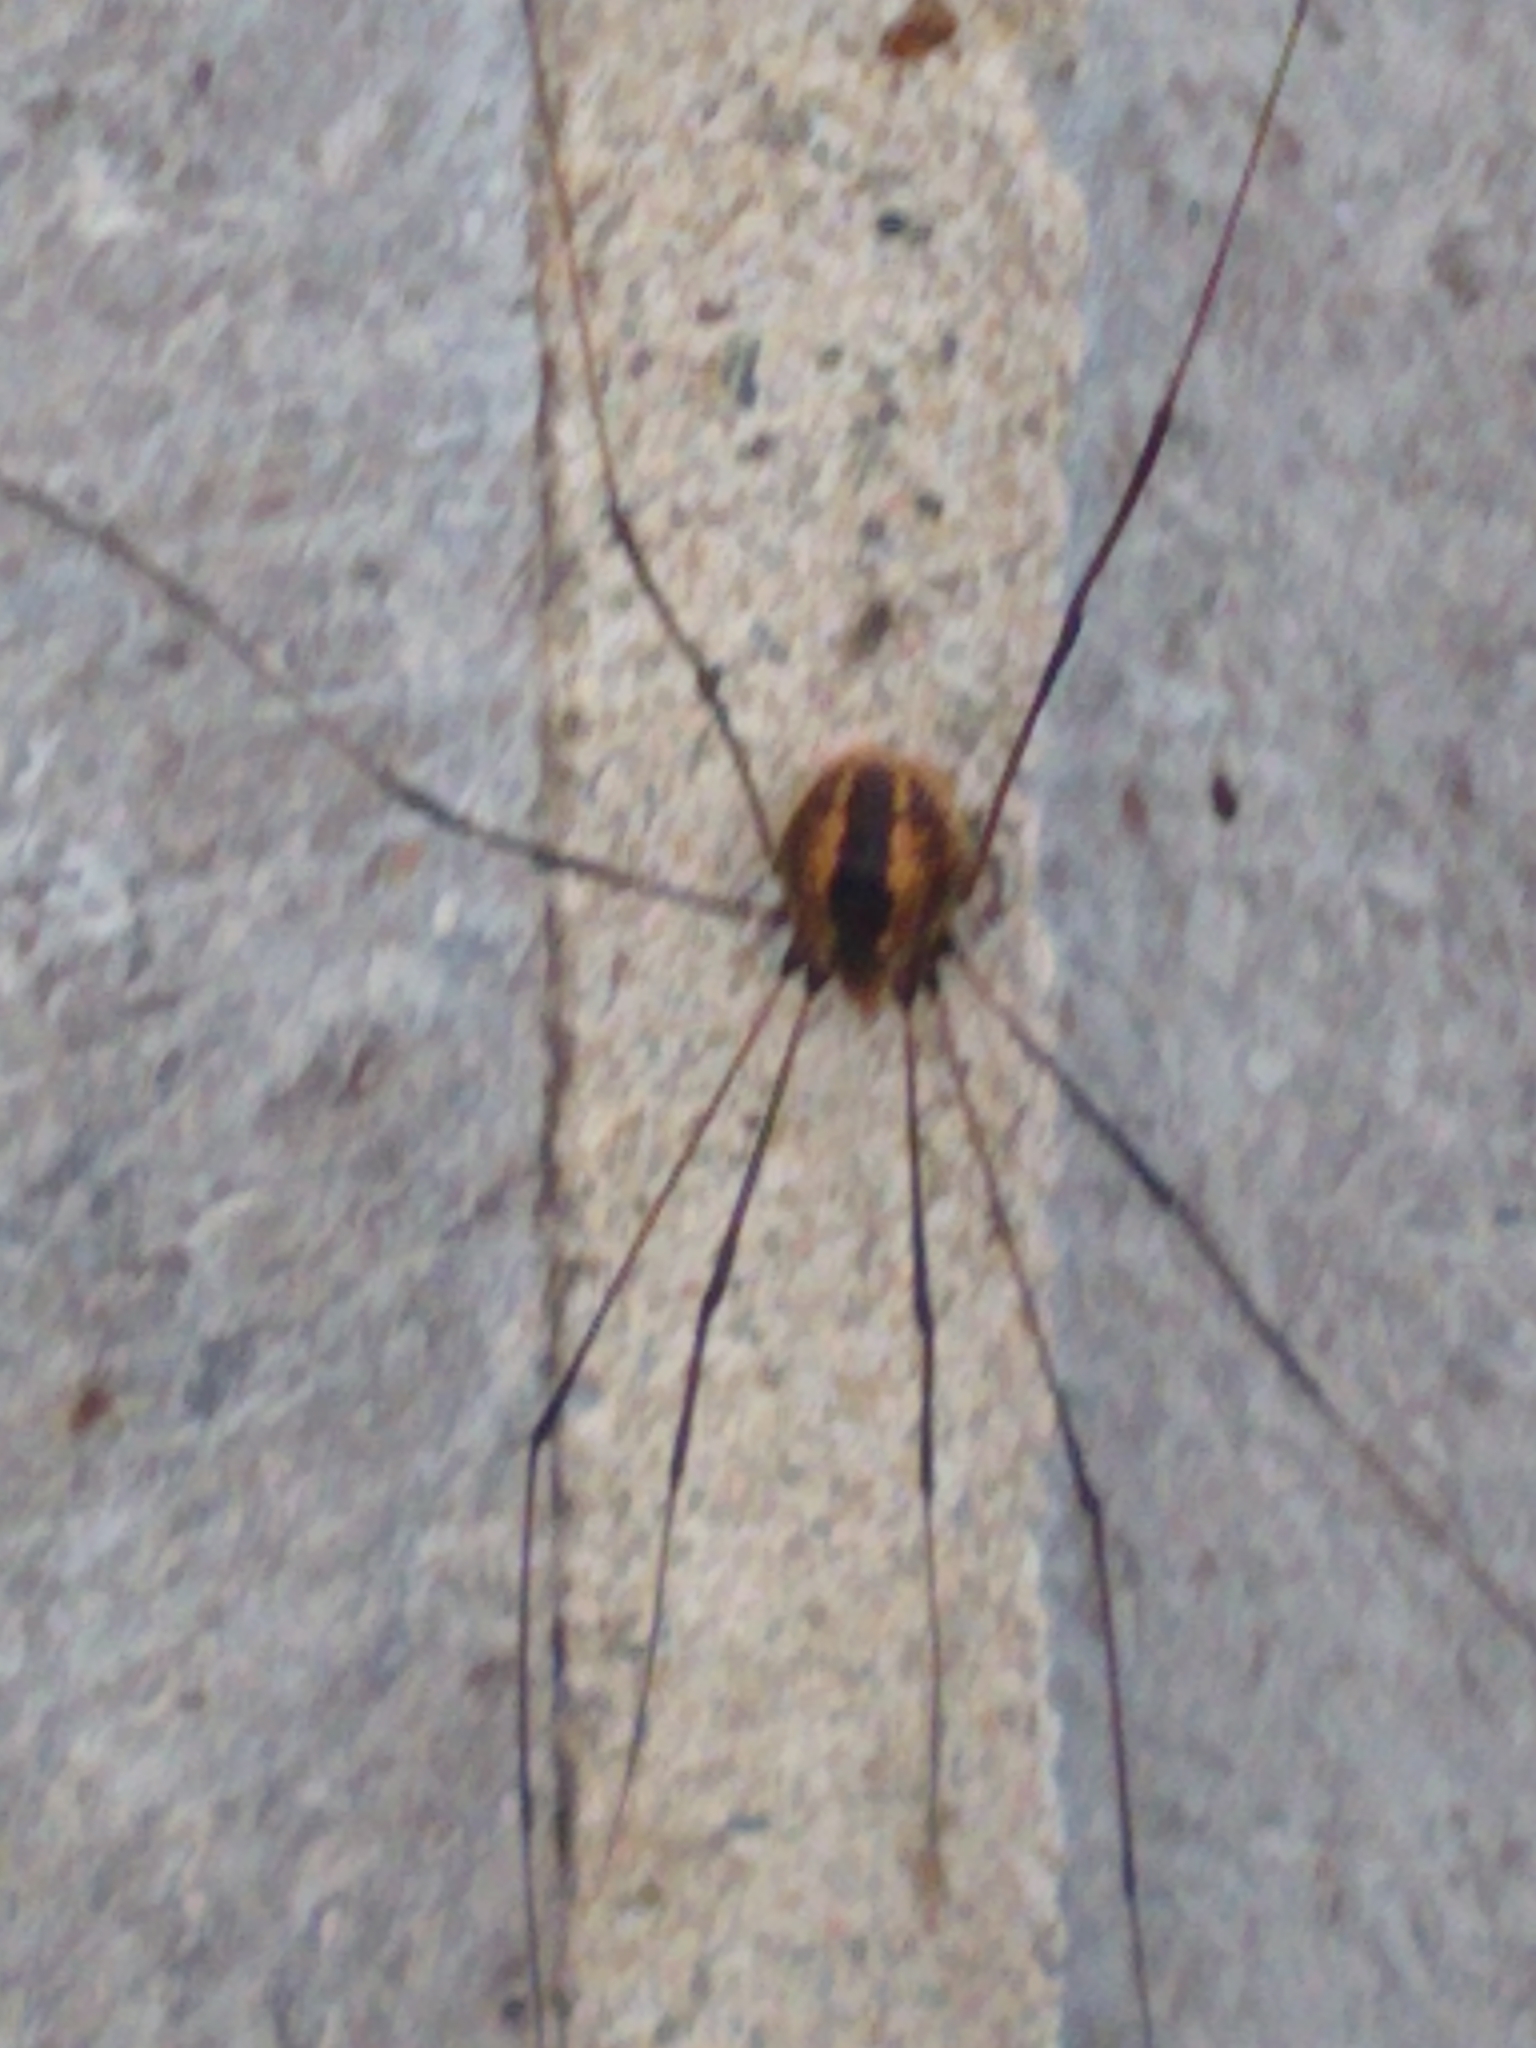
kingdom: Animalia
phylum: Arthropoda
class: Arachnida
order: Opiliones
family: Sclerosomatidae
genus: Leiobunum
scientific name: Leiobunum vittatum
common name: Eastern harvestman
